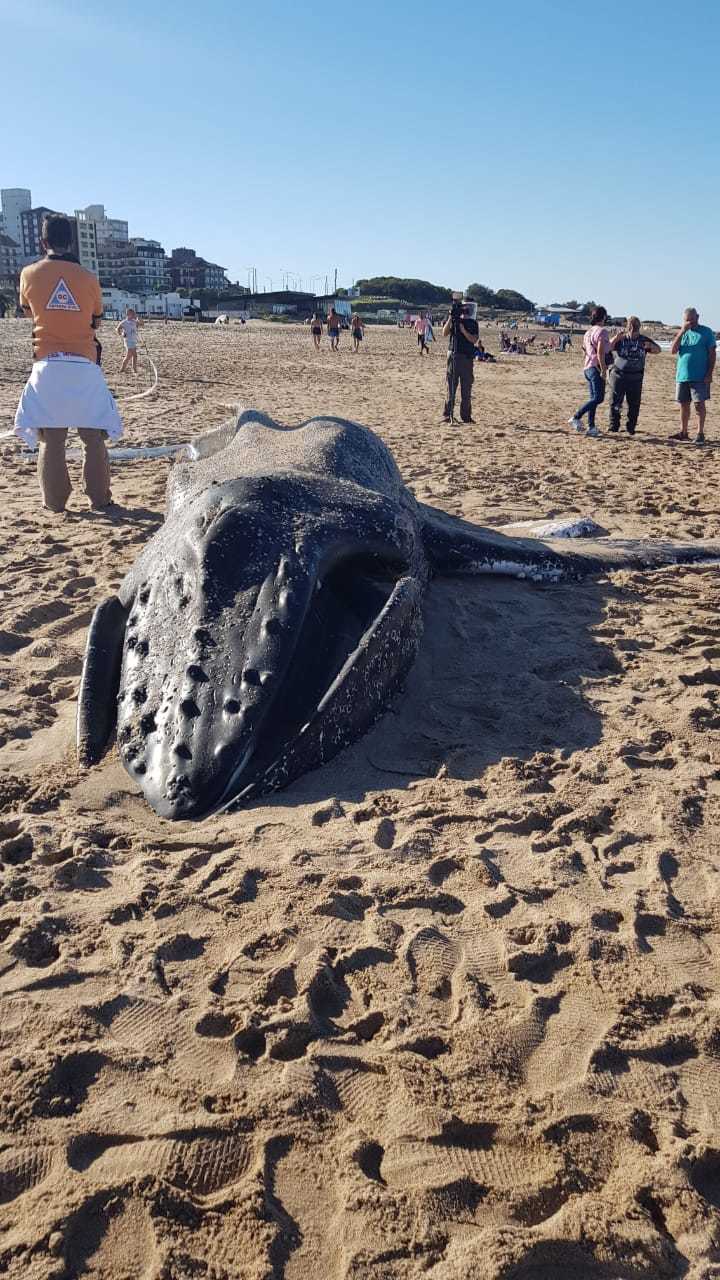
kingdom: Animalia
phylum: Chordata
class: Mammalia
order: Cetacea
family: Balaenopteridae
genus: Megaptera
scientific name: Megaptera novaeangliae
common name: Humpback whale
